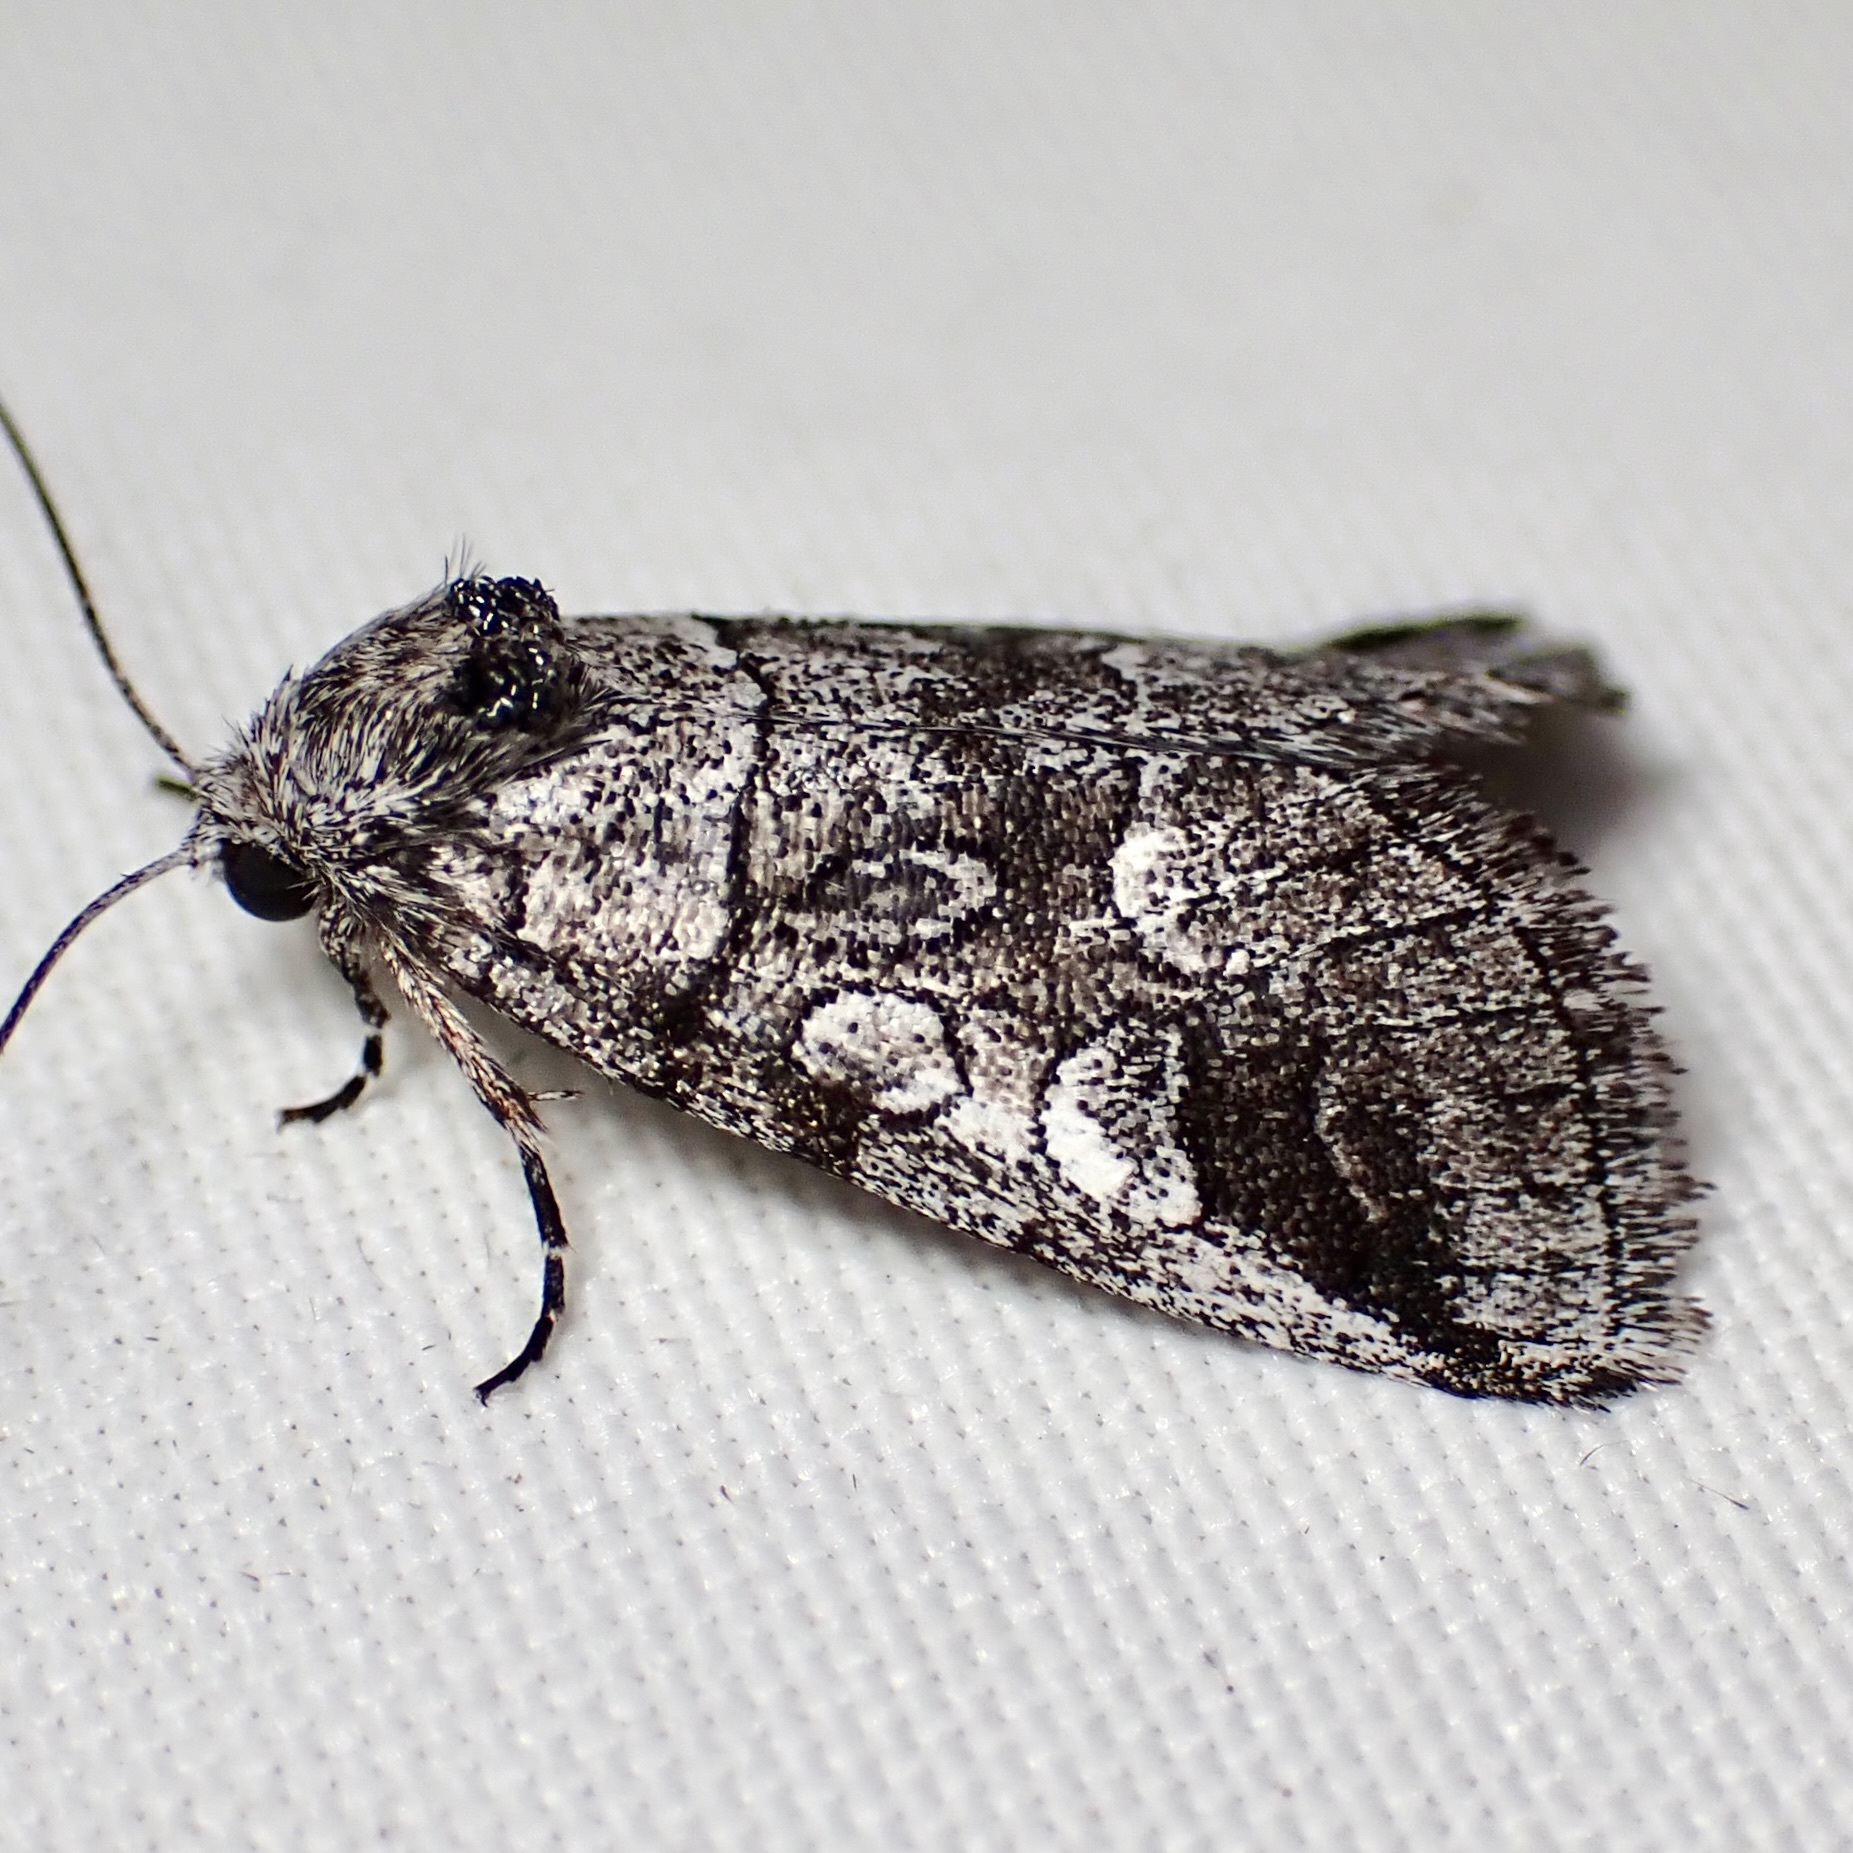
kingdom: Animalia
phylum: Arthropoda
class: Insecta
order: Lepidoptera
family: Noctuidae
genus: Oxycnemis
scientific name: Oxycnemis advena
